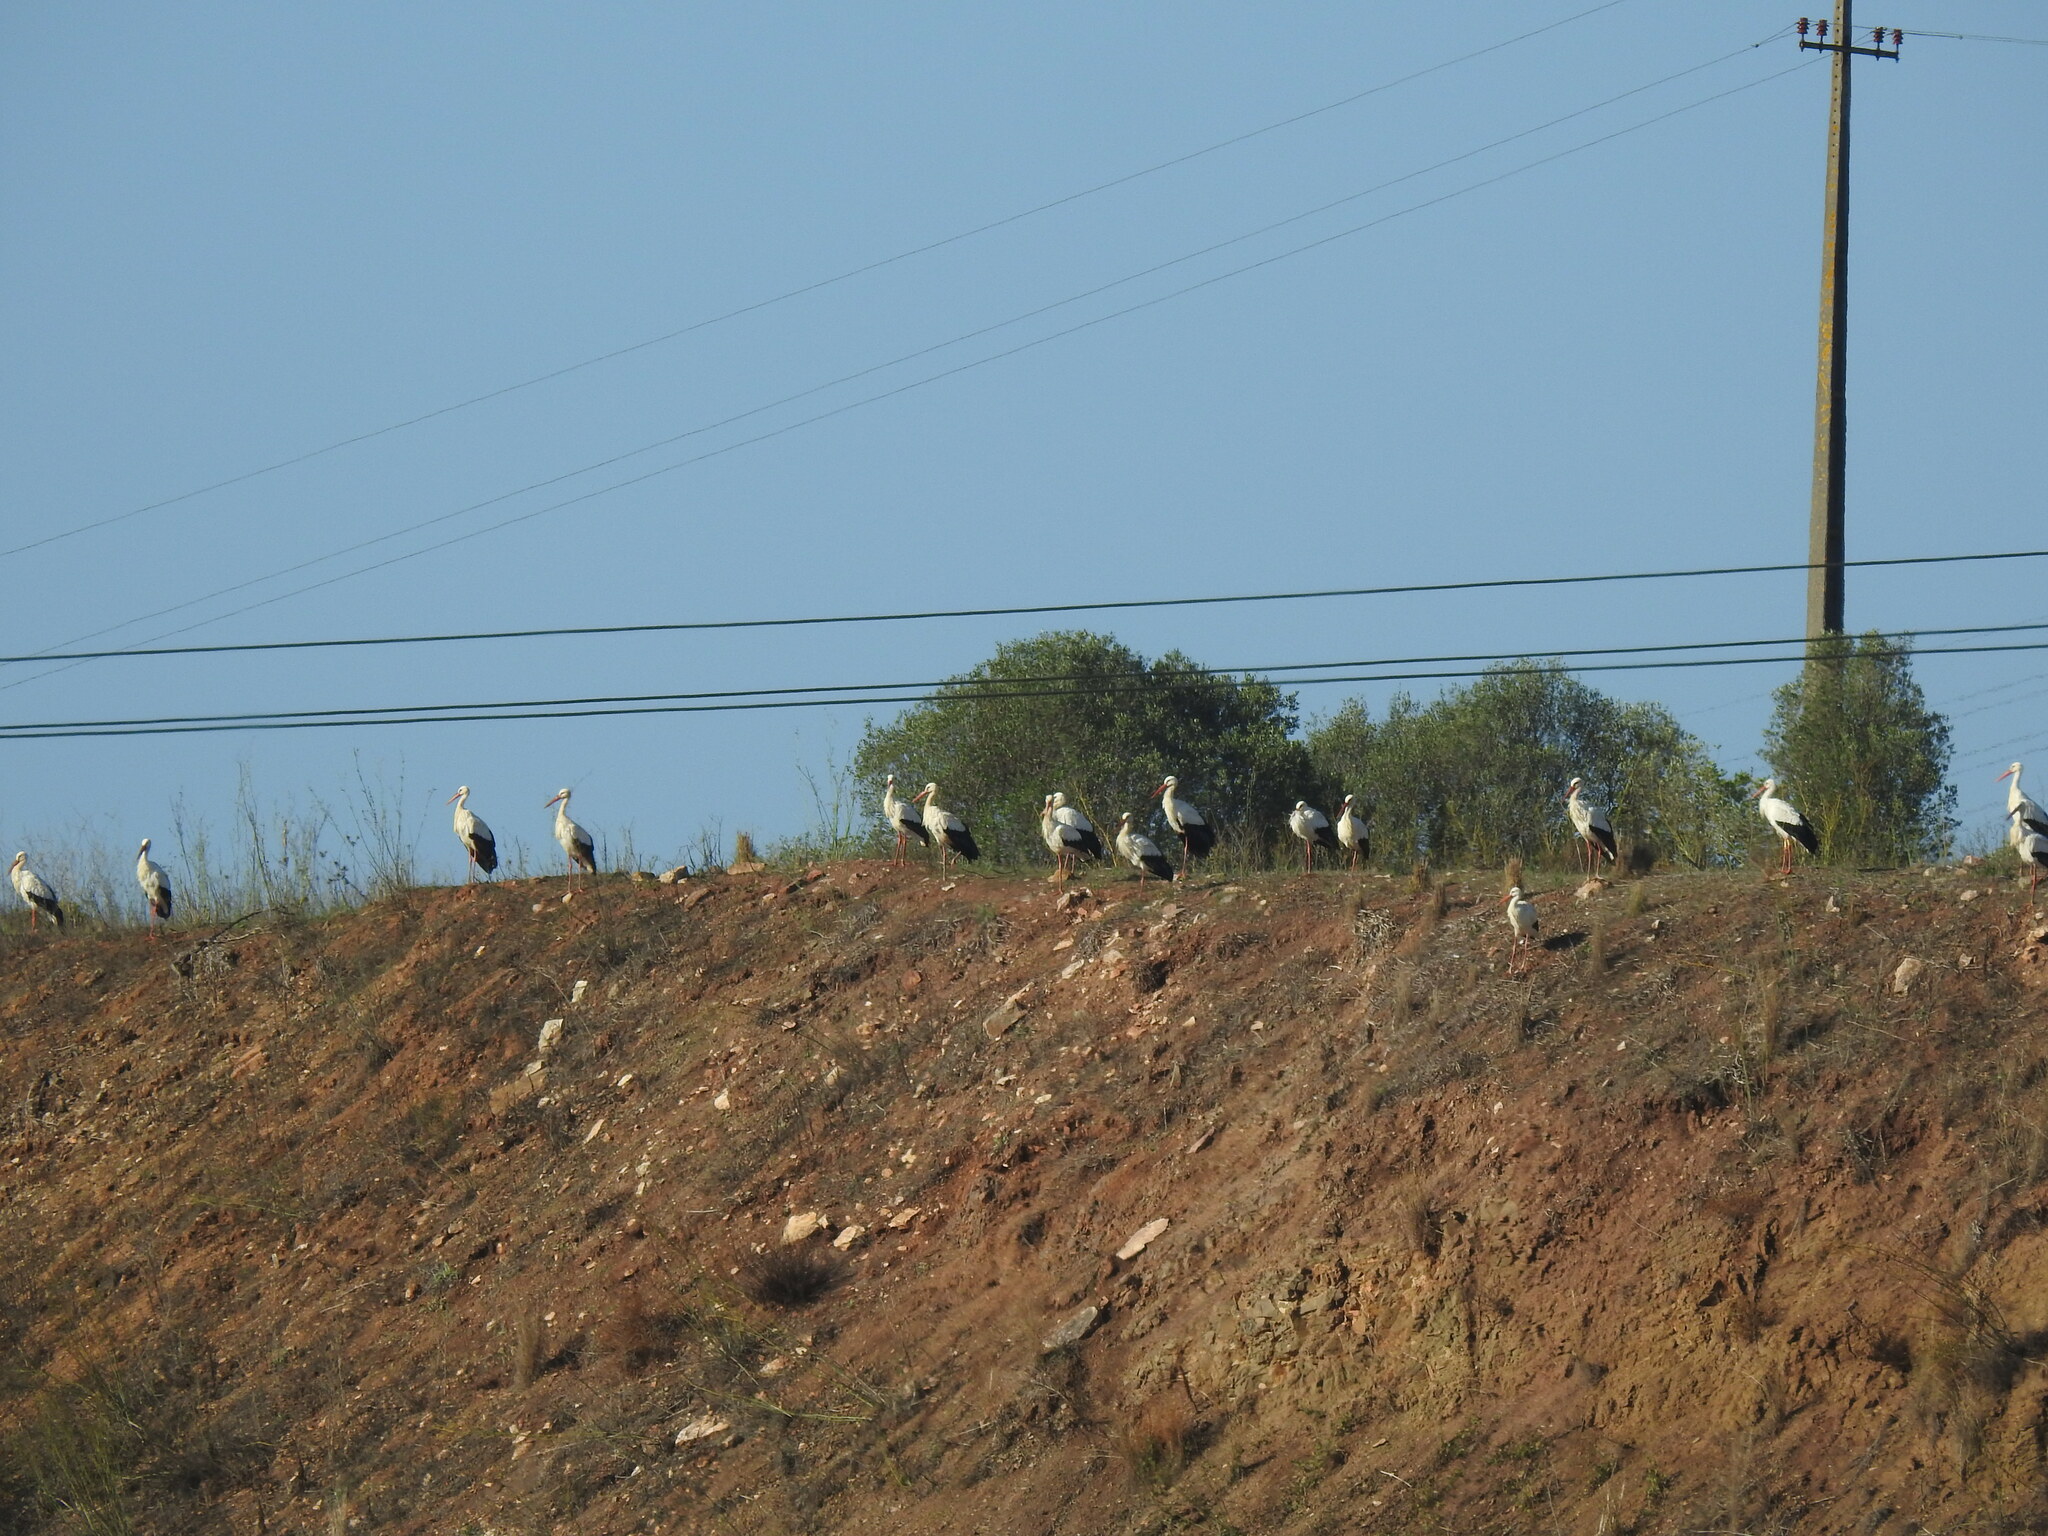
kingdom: Animalia
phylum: Chordata
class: Aves
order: Ciconiiformes
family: Ciconiidae
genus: Ciconia
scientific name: Ciconia ciconia
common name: White stork
